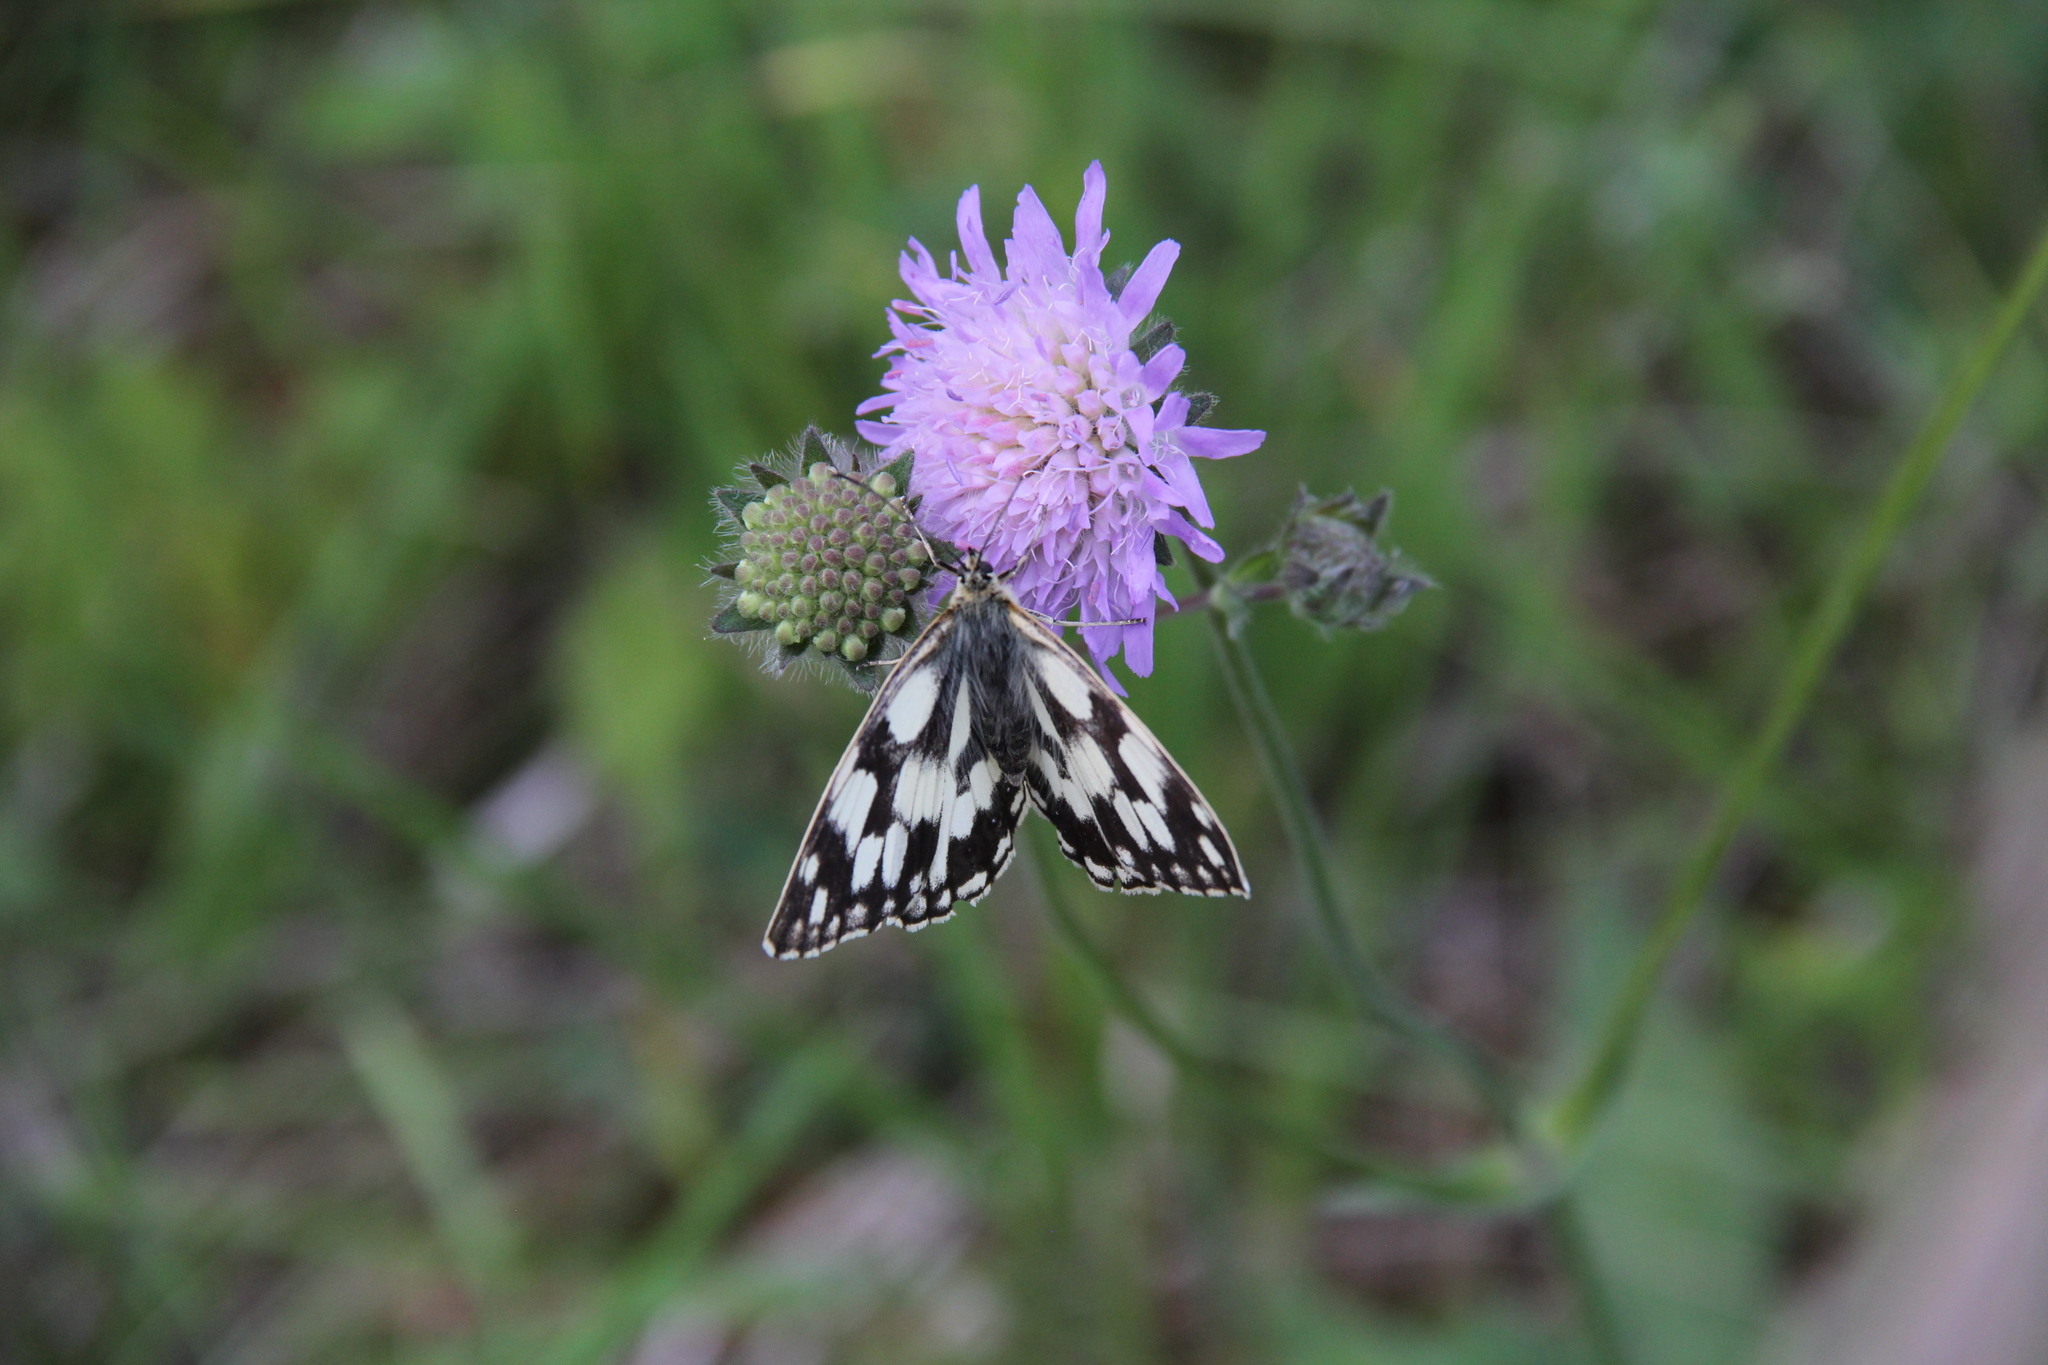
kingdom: Animalia
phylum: Arthropoda
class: Insecta
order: Lepidoptera
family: Nymphalidae
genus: Melanargia
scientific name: Melanargia galathea
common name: Marbled white
